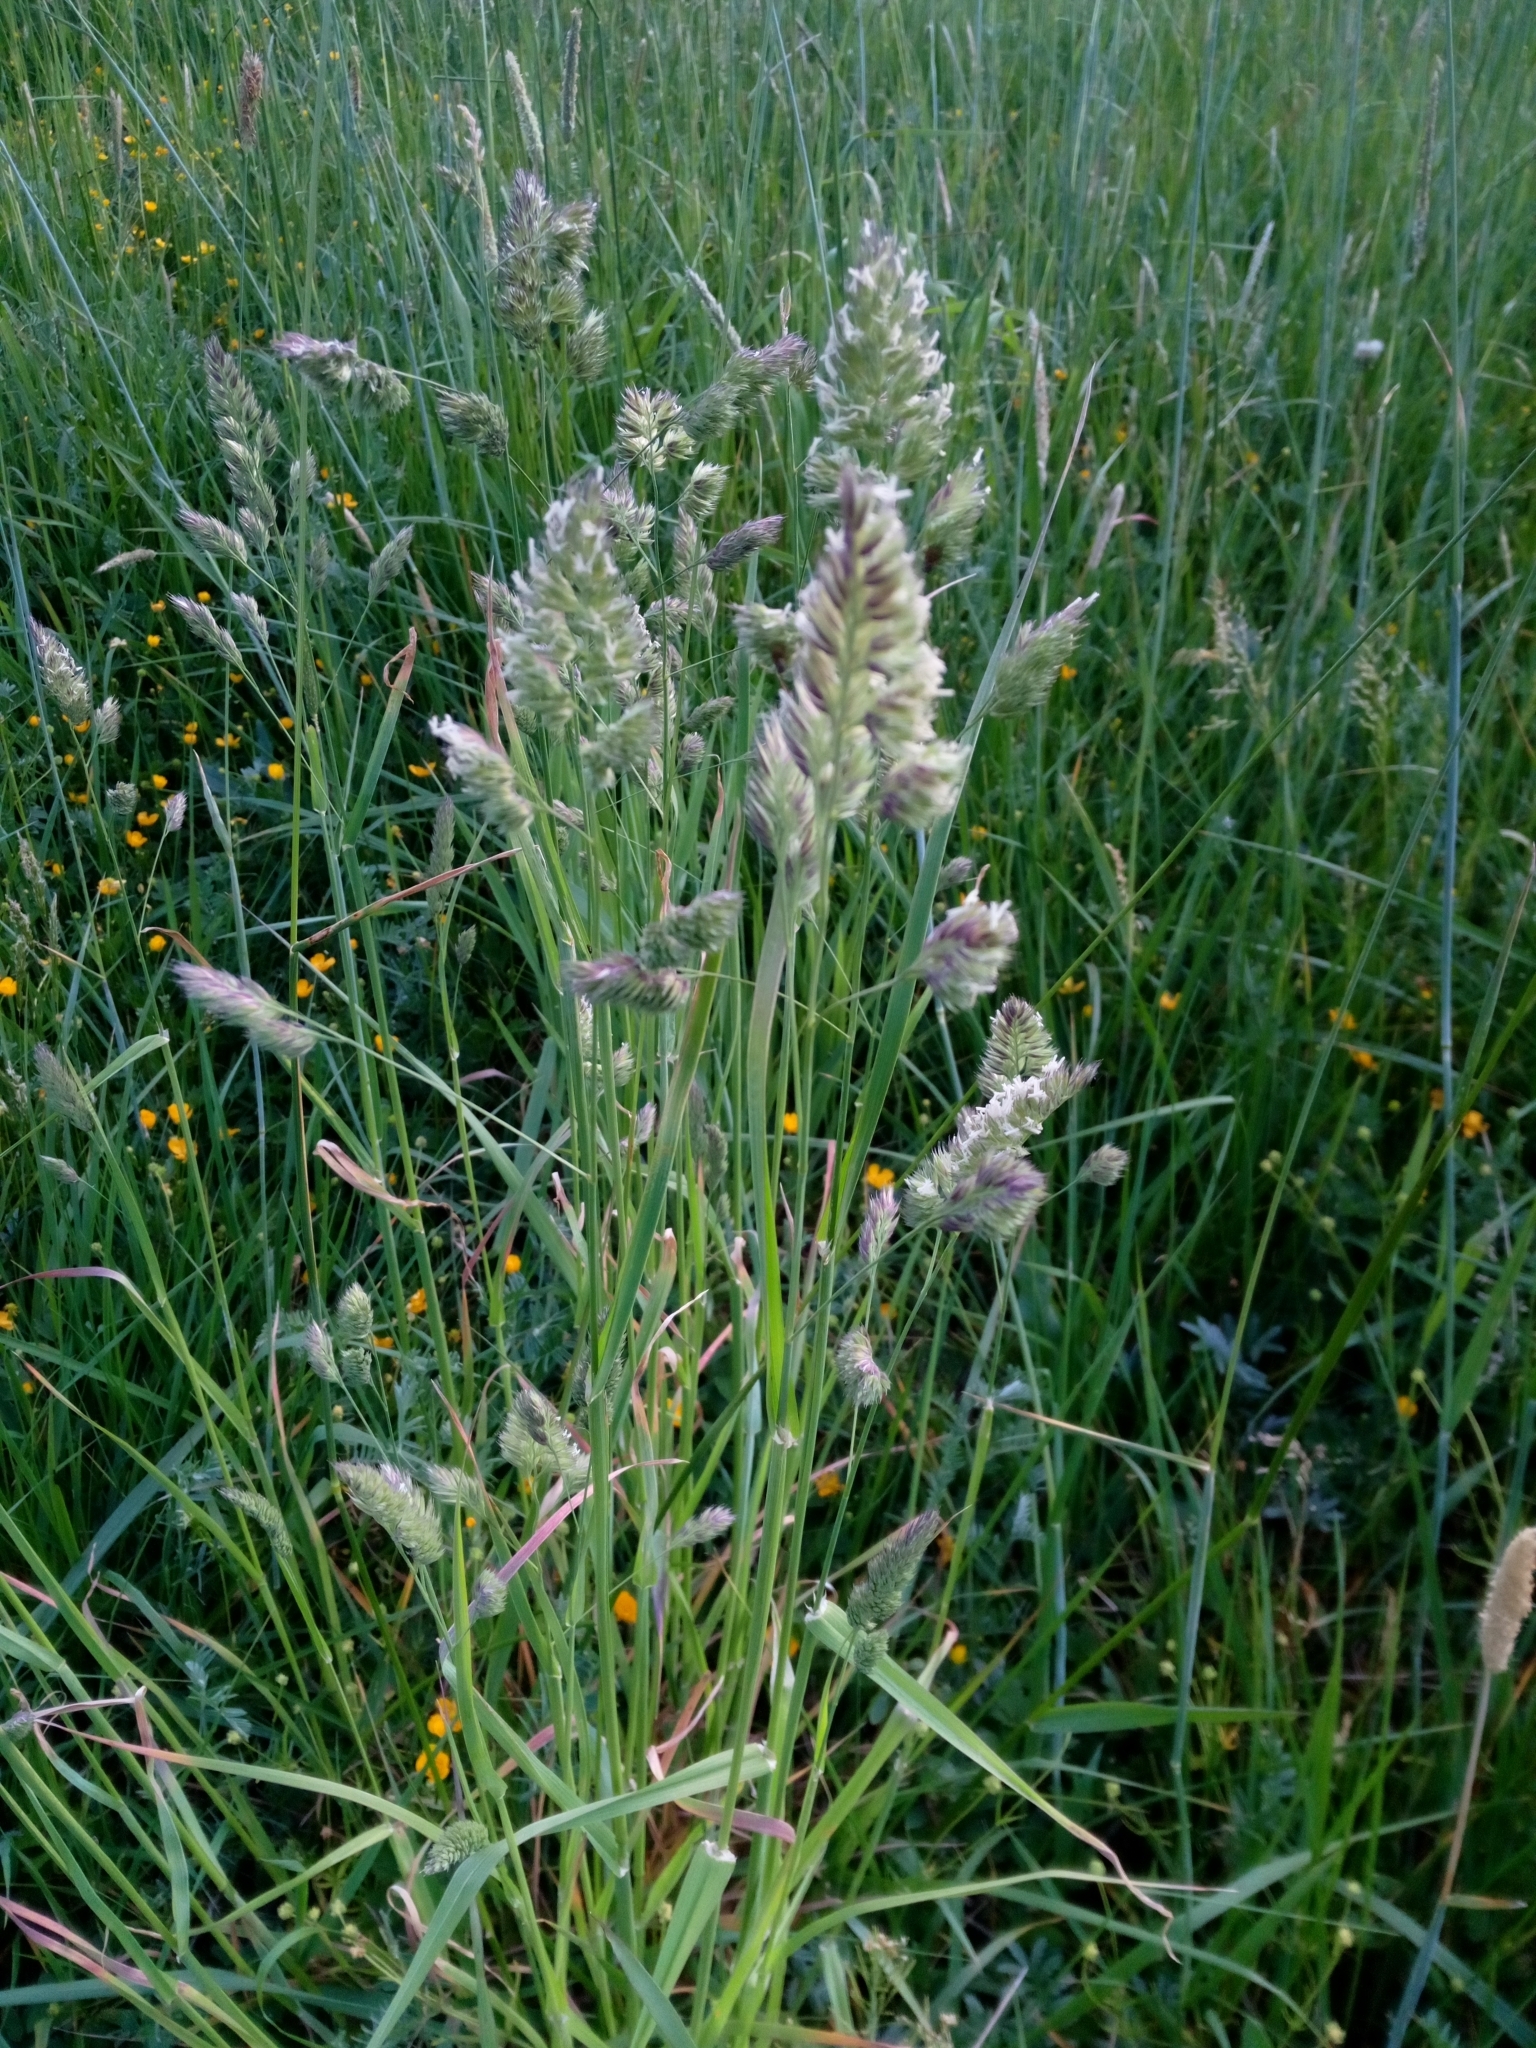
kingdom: Plantae
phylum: Tracheophyta
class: Liliopsida
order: Poales
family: Poaceae
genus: Dactylis
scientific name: Dactylis glomerata
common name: Orchardgrass
